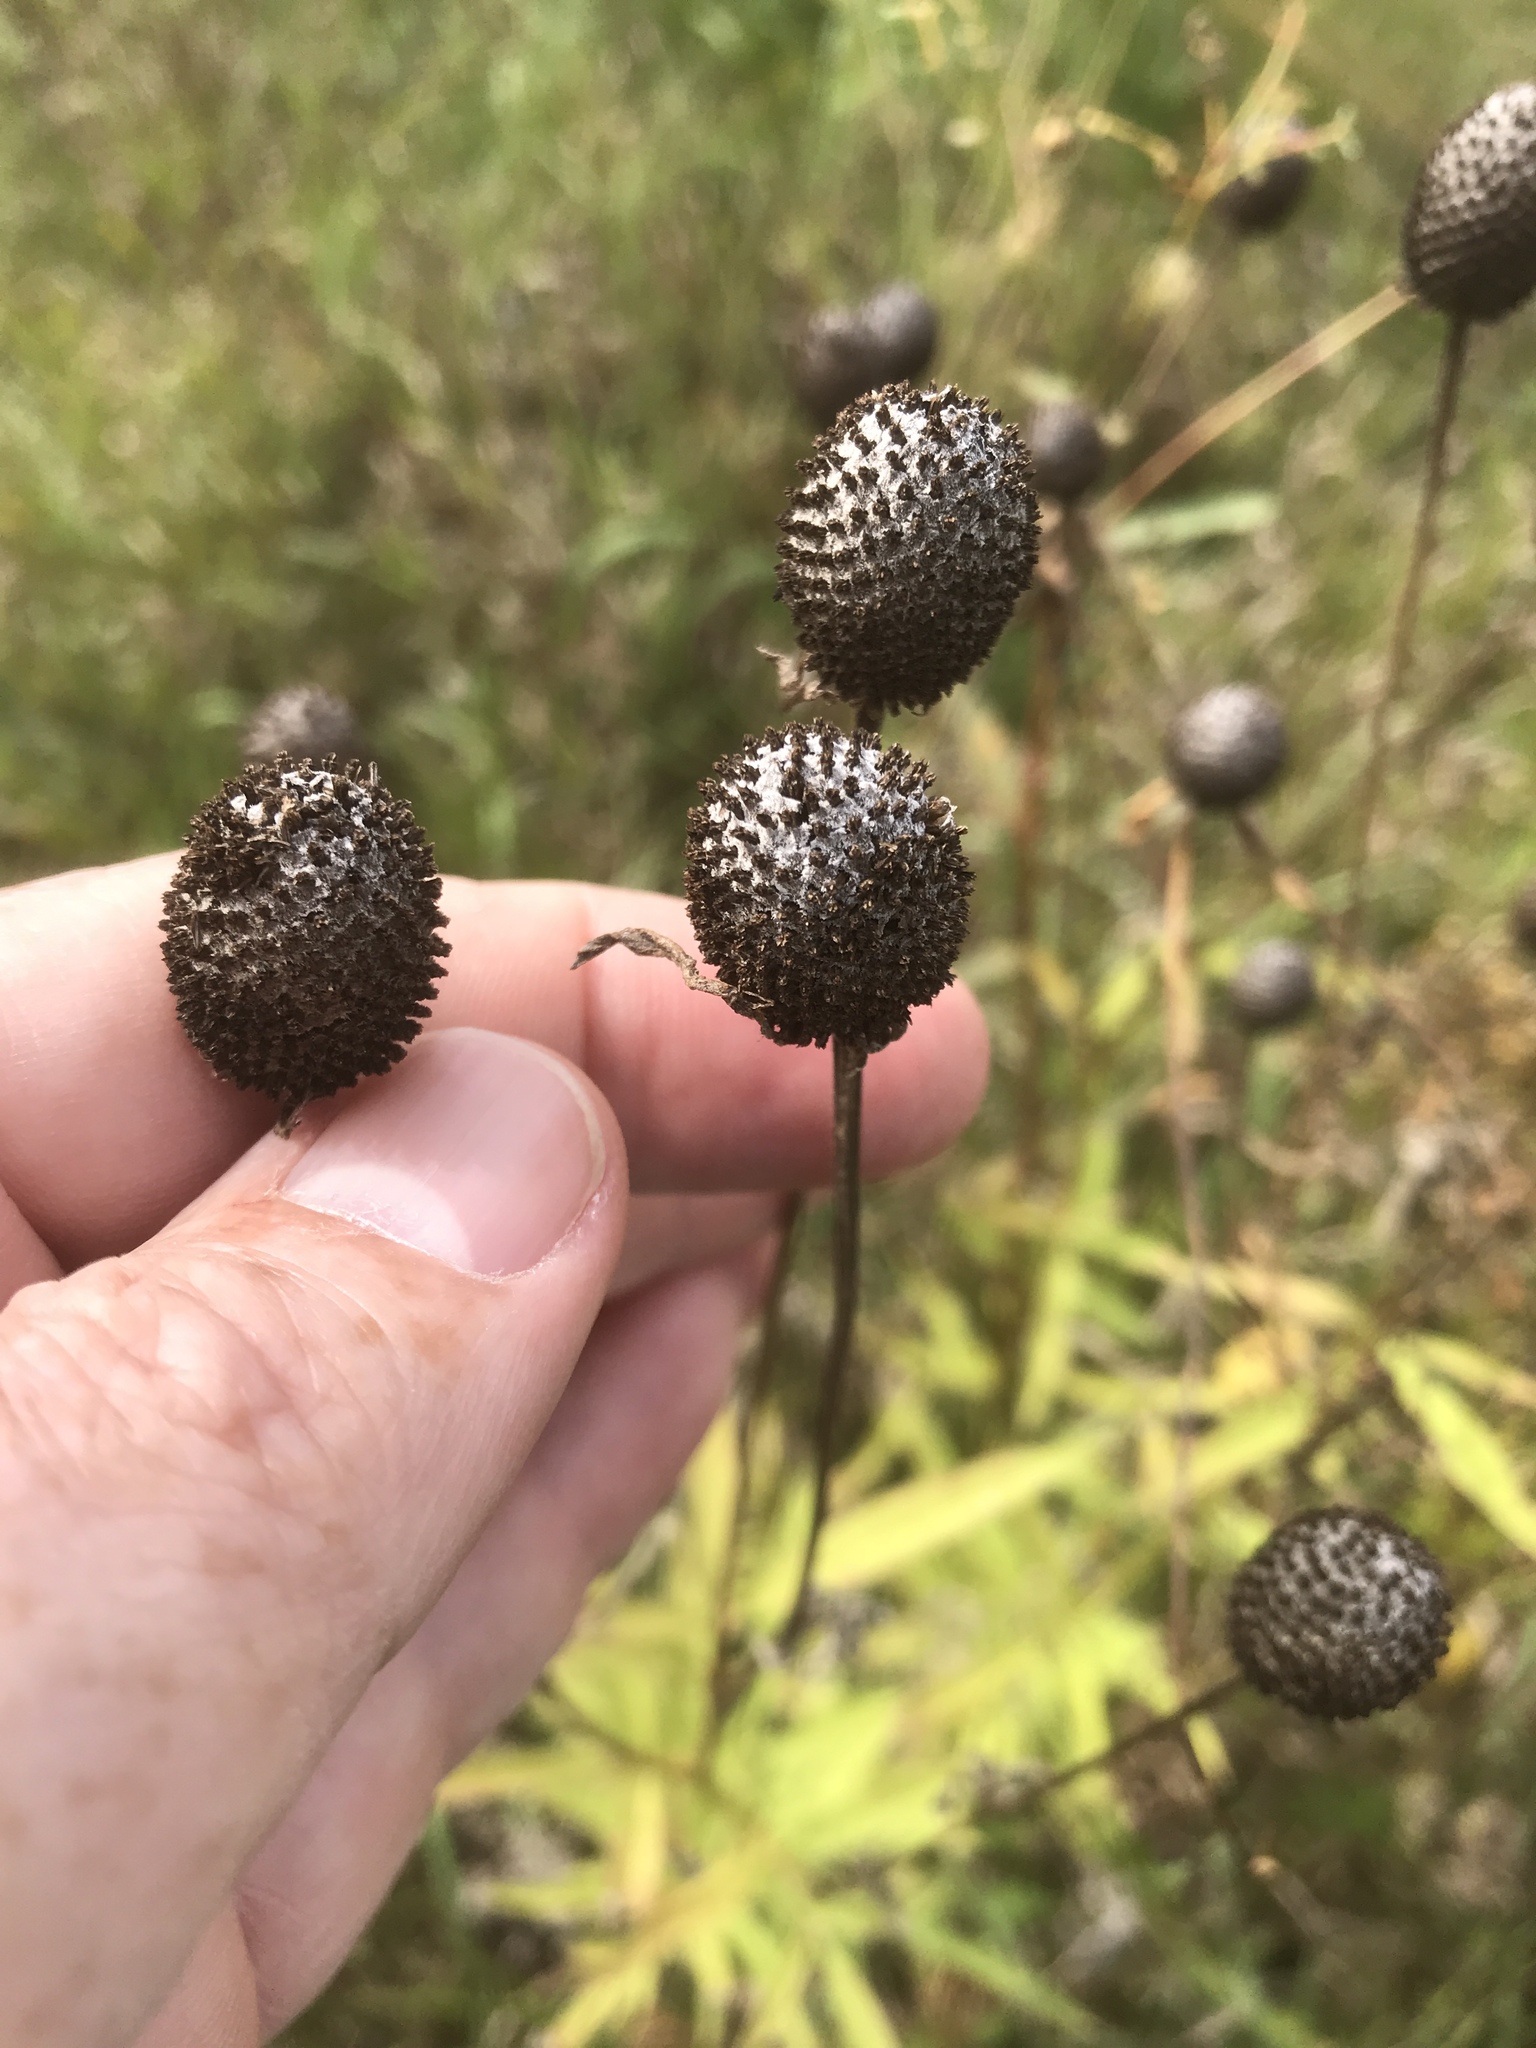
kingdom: Plantae
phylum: Tracheophyta
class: Magnoliopsida
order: Asterales
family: Asteraceae
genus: Ratibida
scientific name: Ratibida pinnata
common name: Drooping prairie-coneflower
